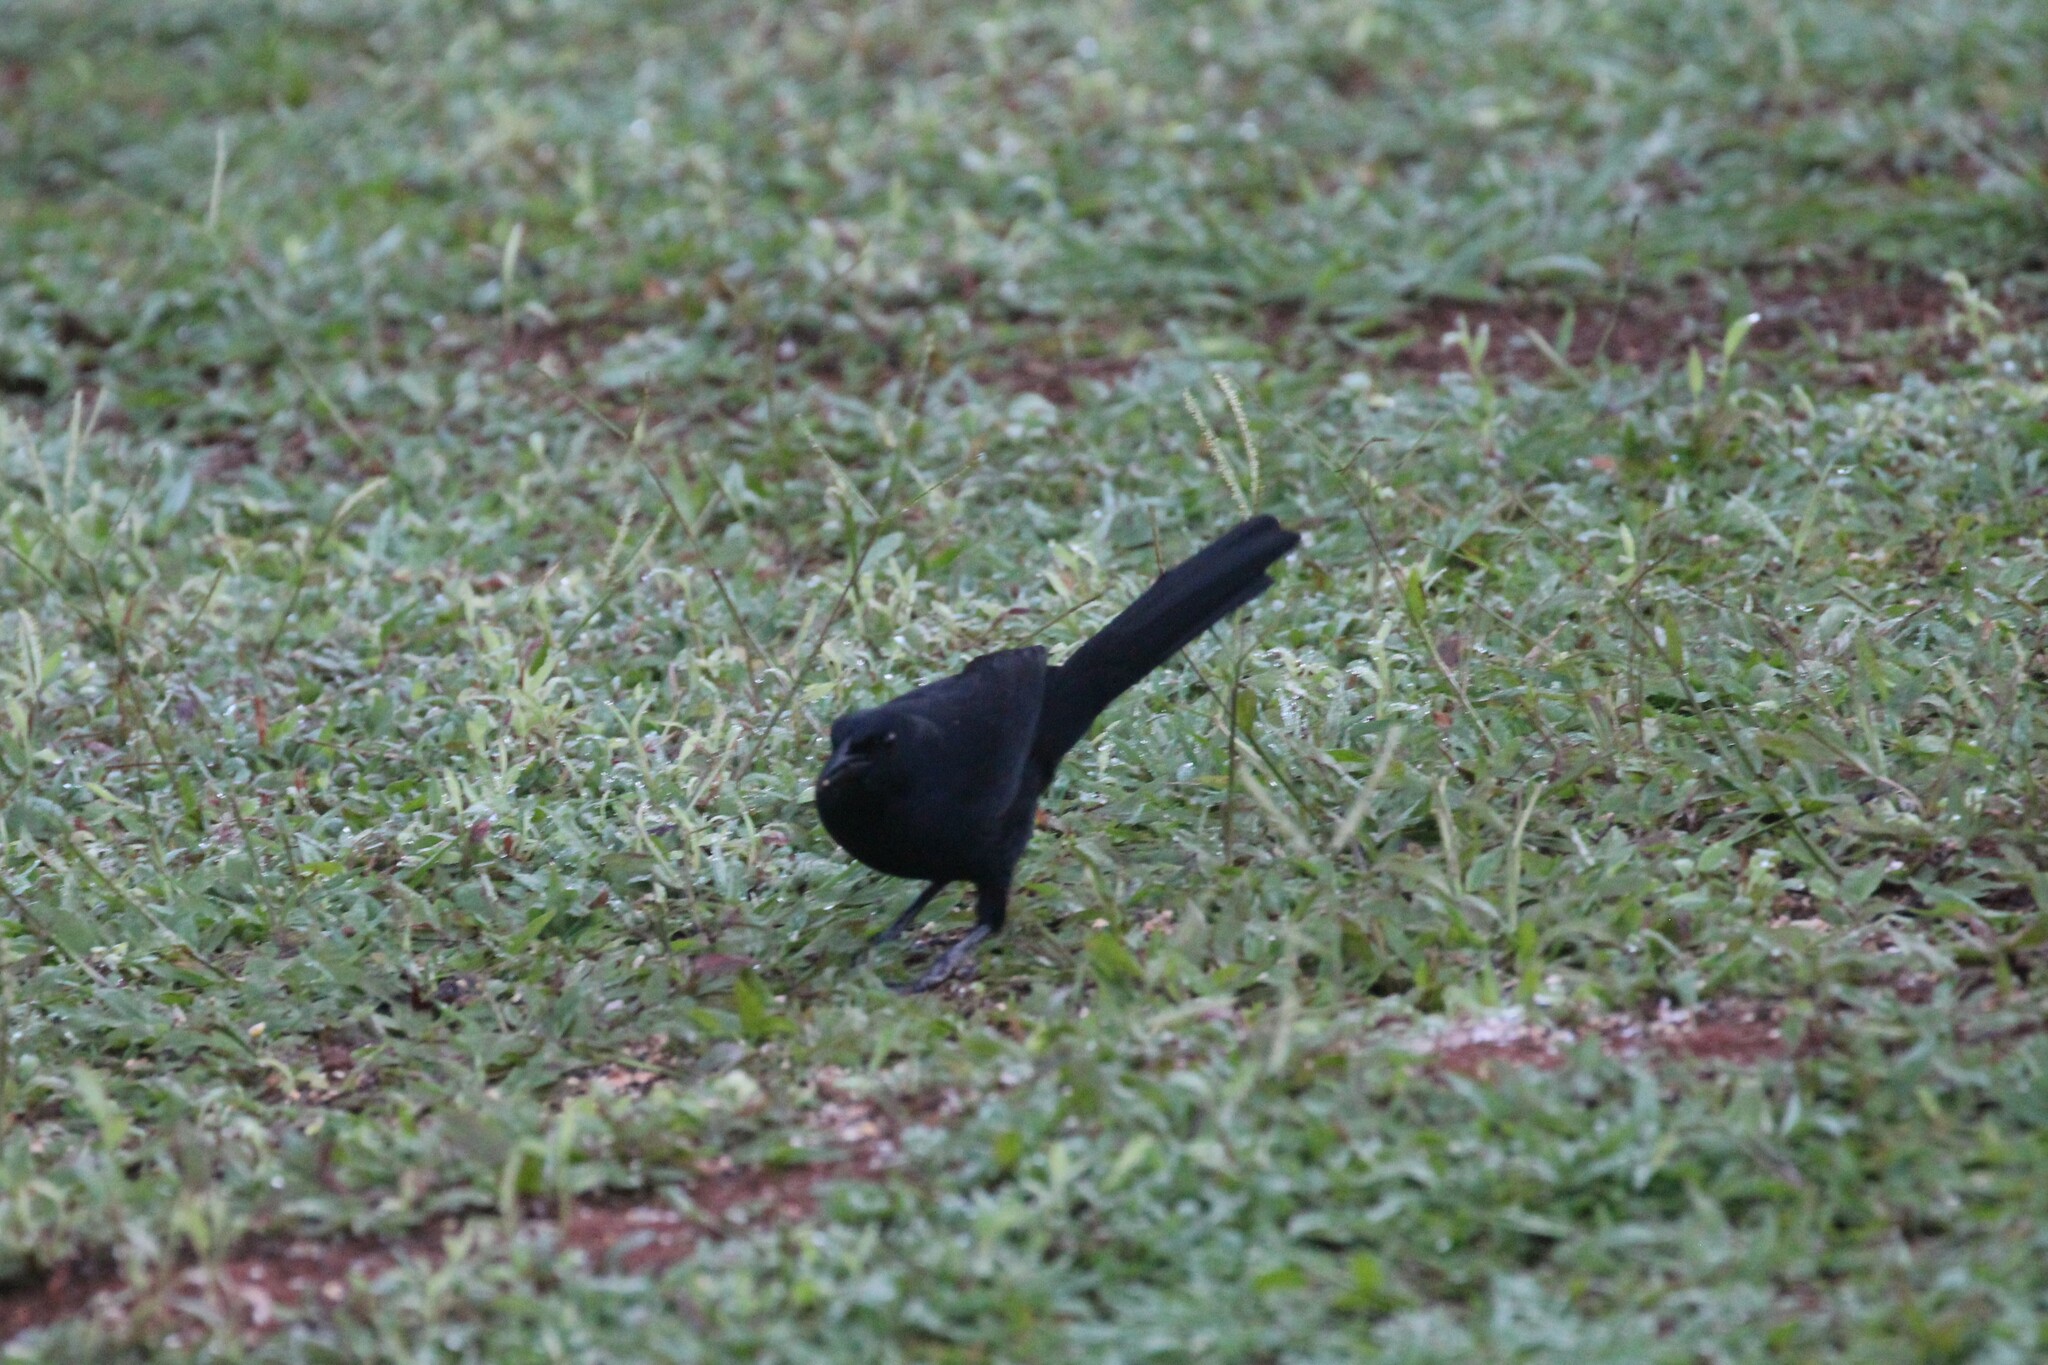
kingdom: Animalia
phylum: Chordata
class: Aves
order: Passeriformes
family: Icteridae
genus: Dives
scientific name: Dives dives
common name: Melodious blackbird
